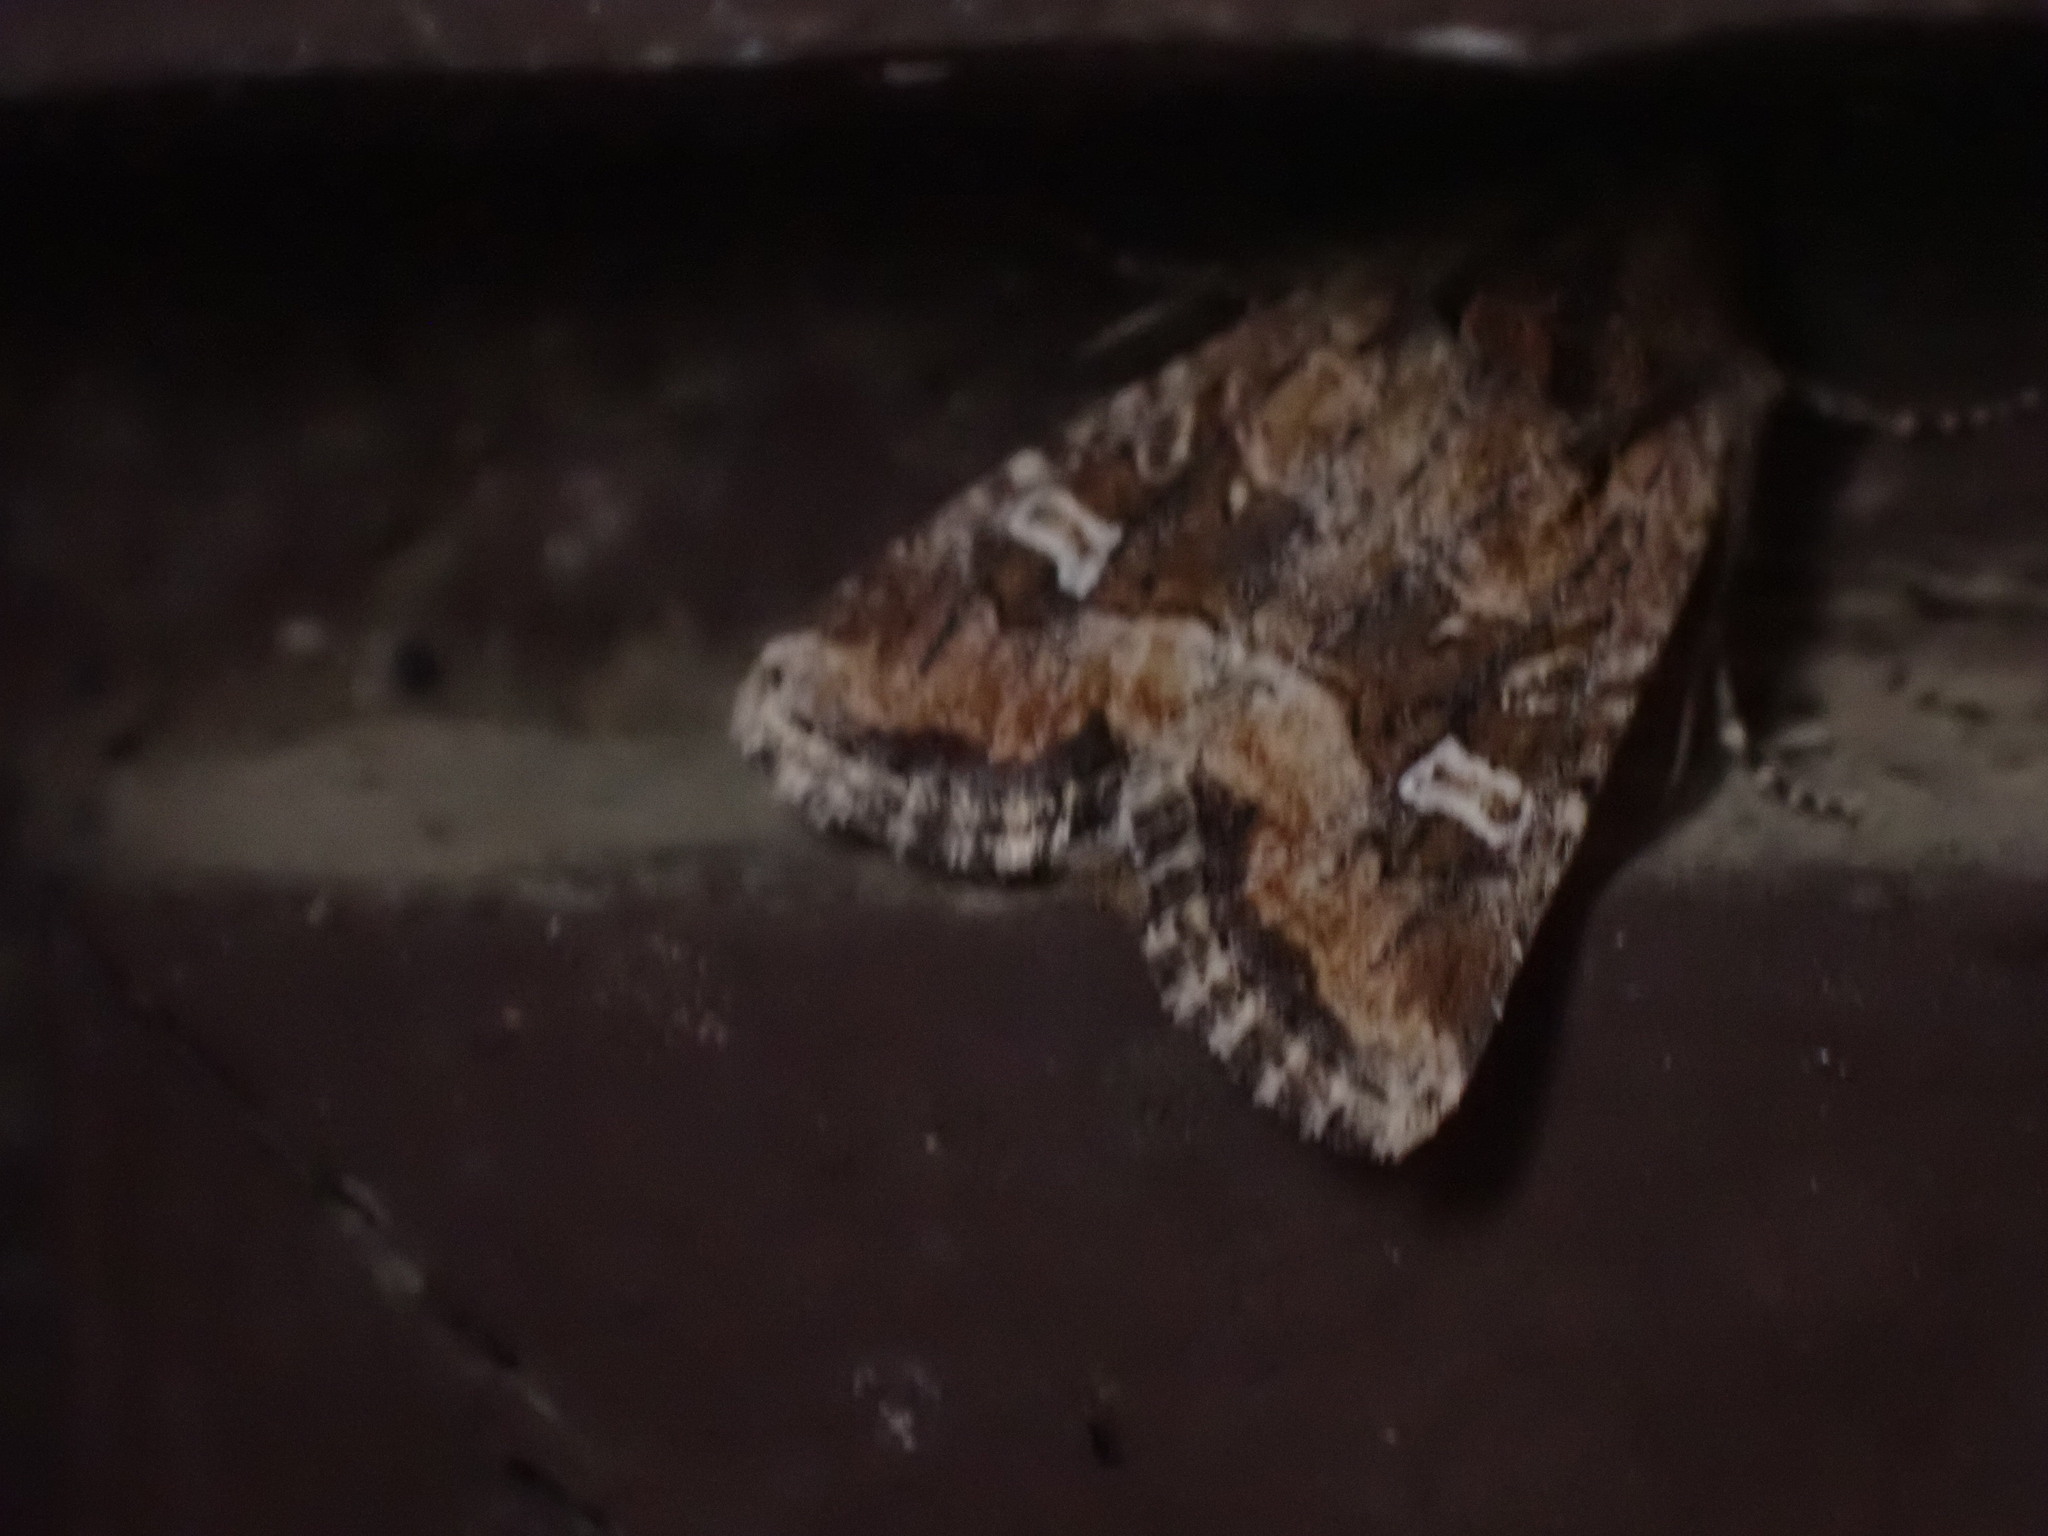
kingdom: Animalia
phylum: Arthropoda
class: Insecta
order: Lepidoptera
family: Noctuidae
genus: Lacinipolia
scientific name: Lacinipolia stricta
